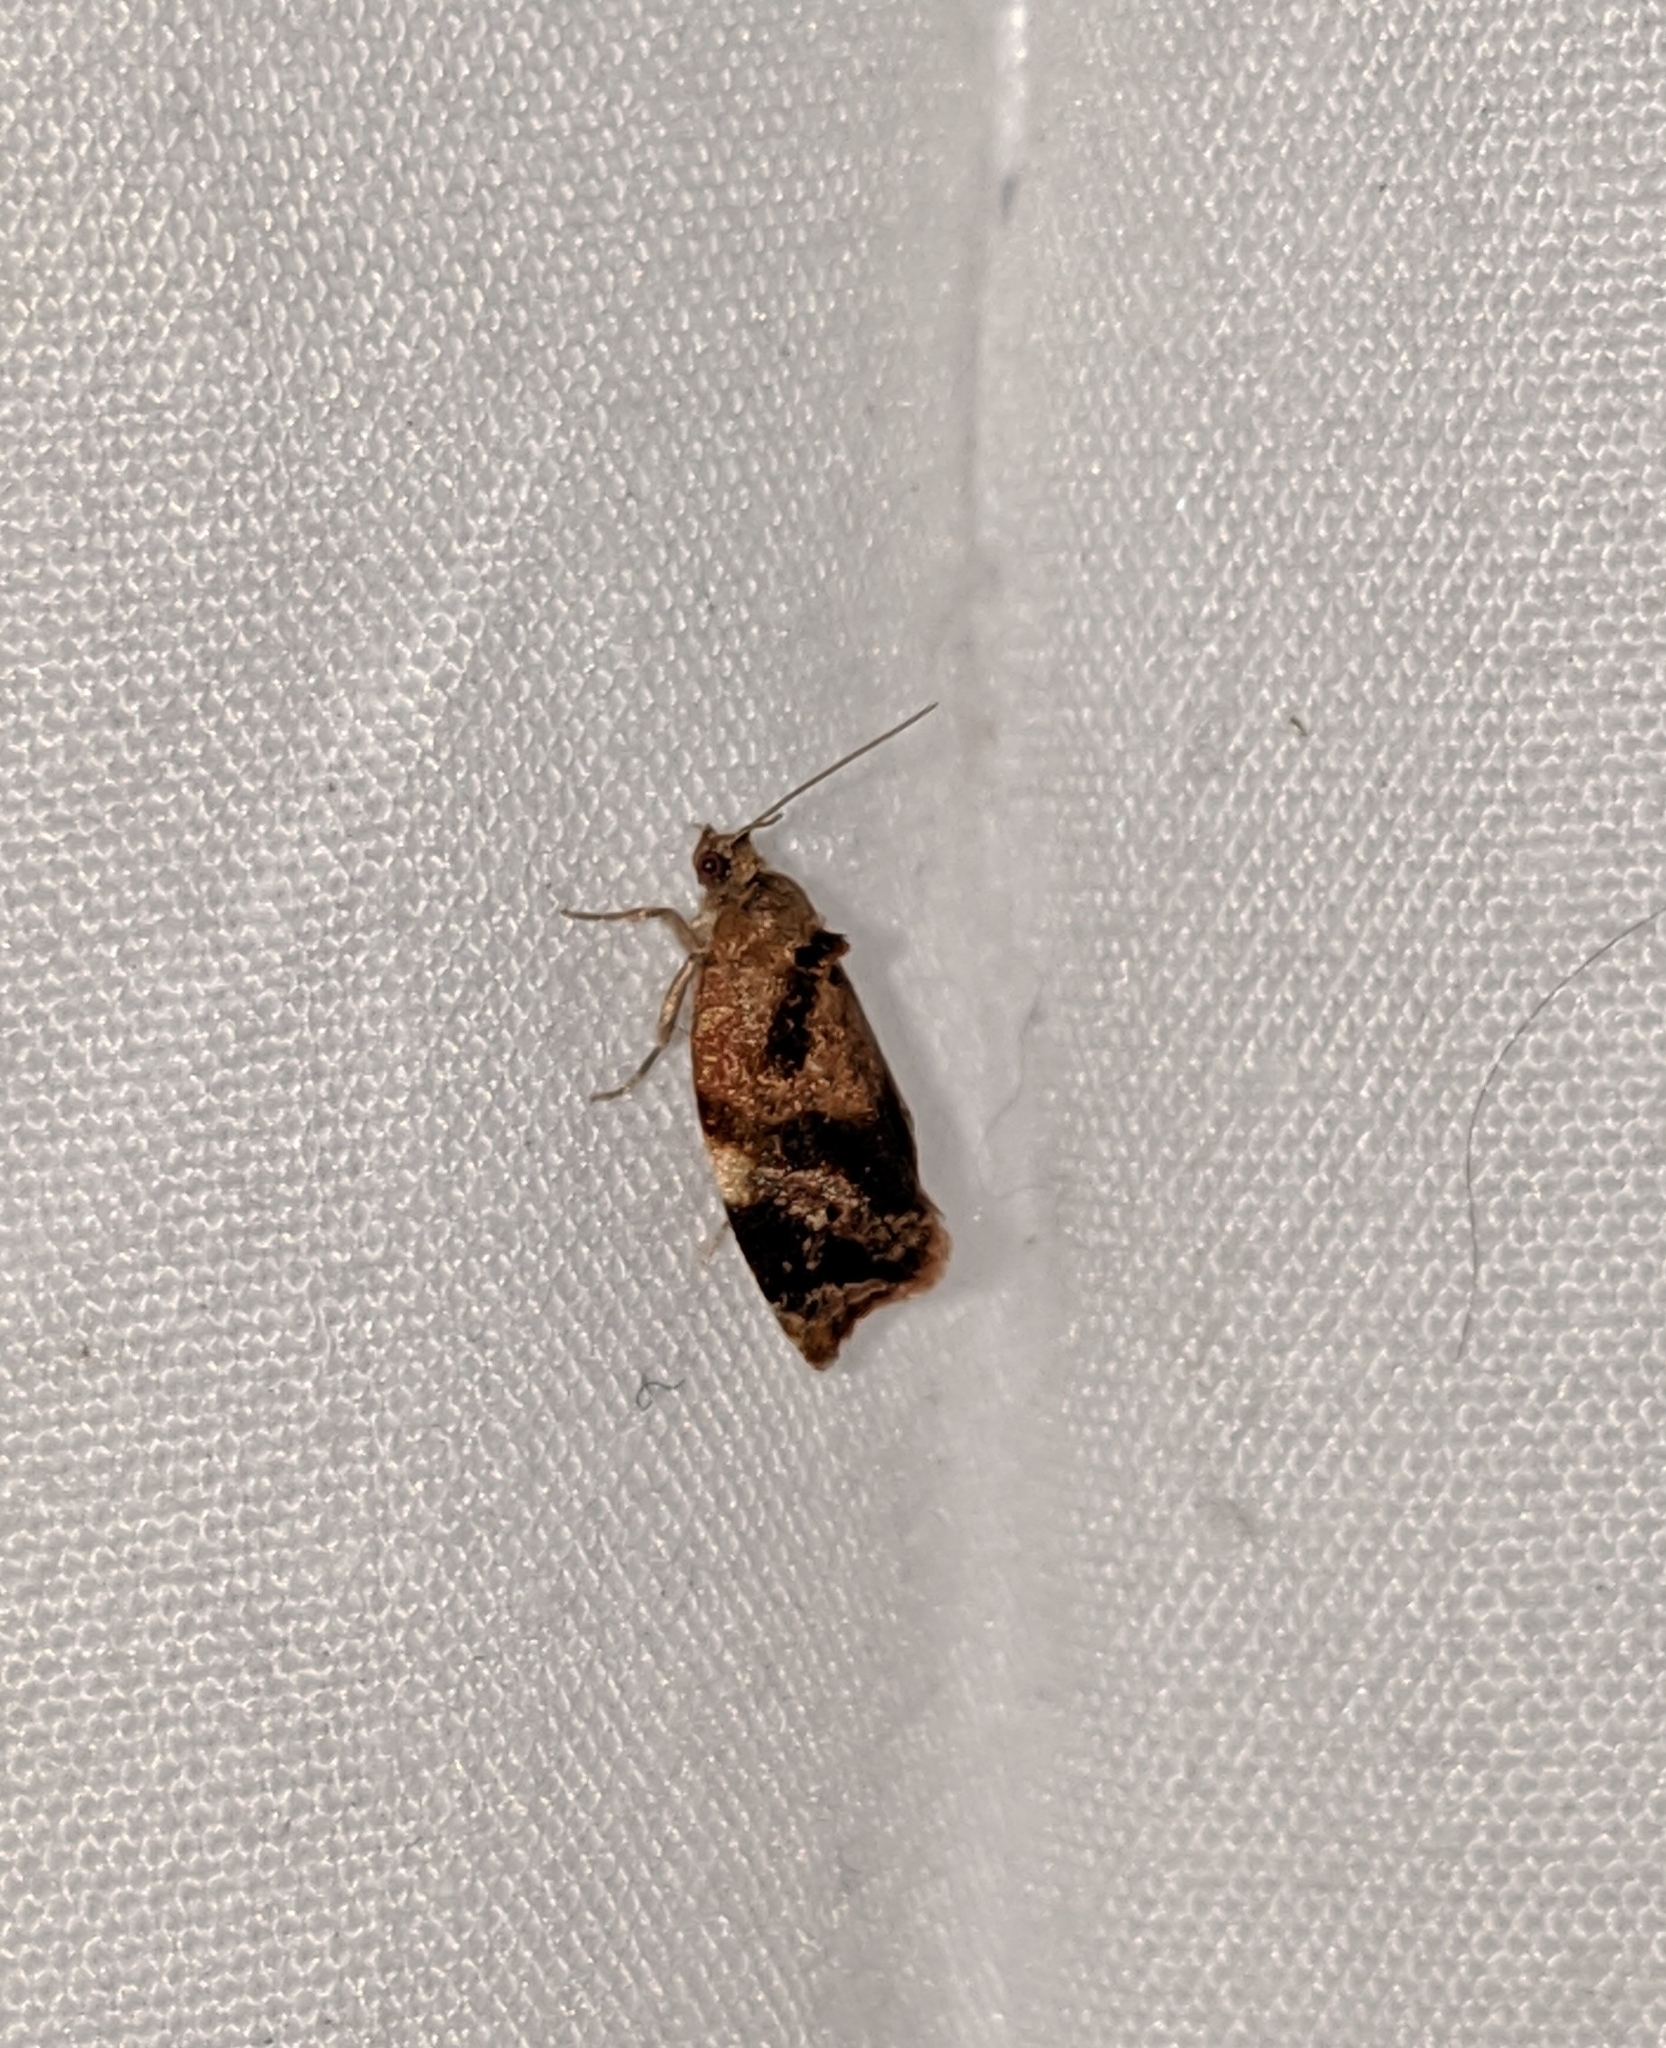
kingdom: Animalia
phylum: Arthropoda
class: Insecta
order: Lepidoptera
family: Tortricidae
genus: Ditula
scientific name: Ditula angustiorana
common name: Red-barred tortrix
